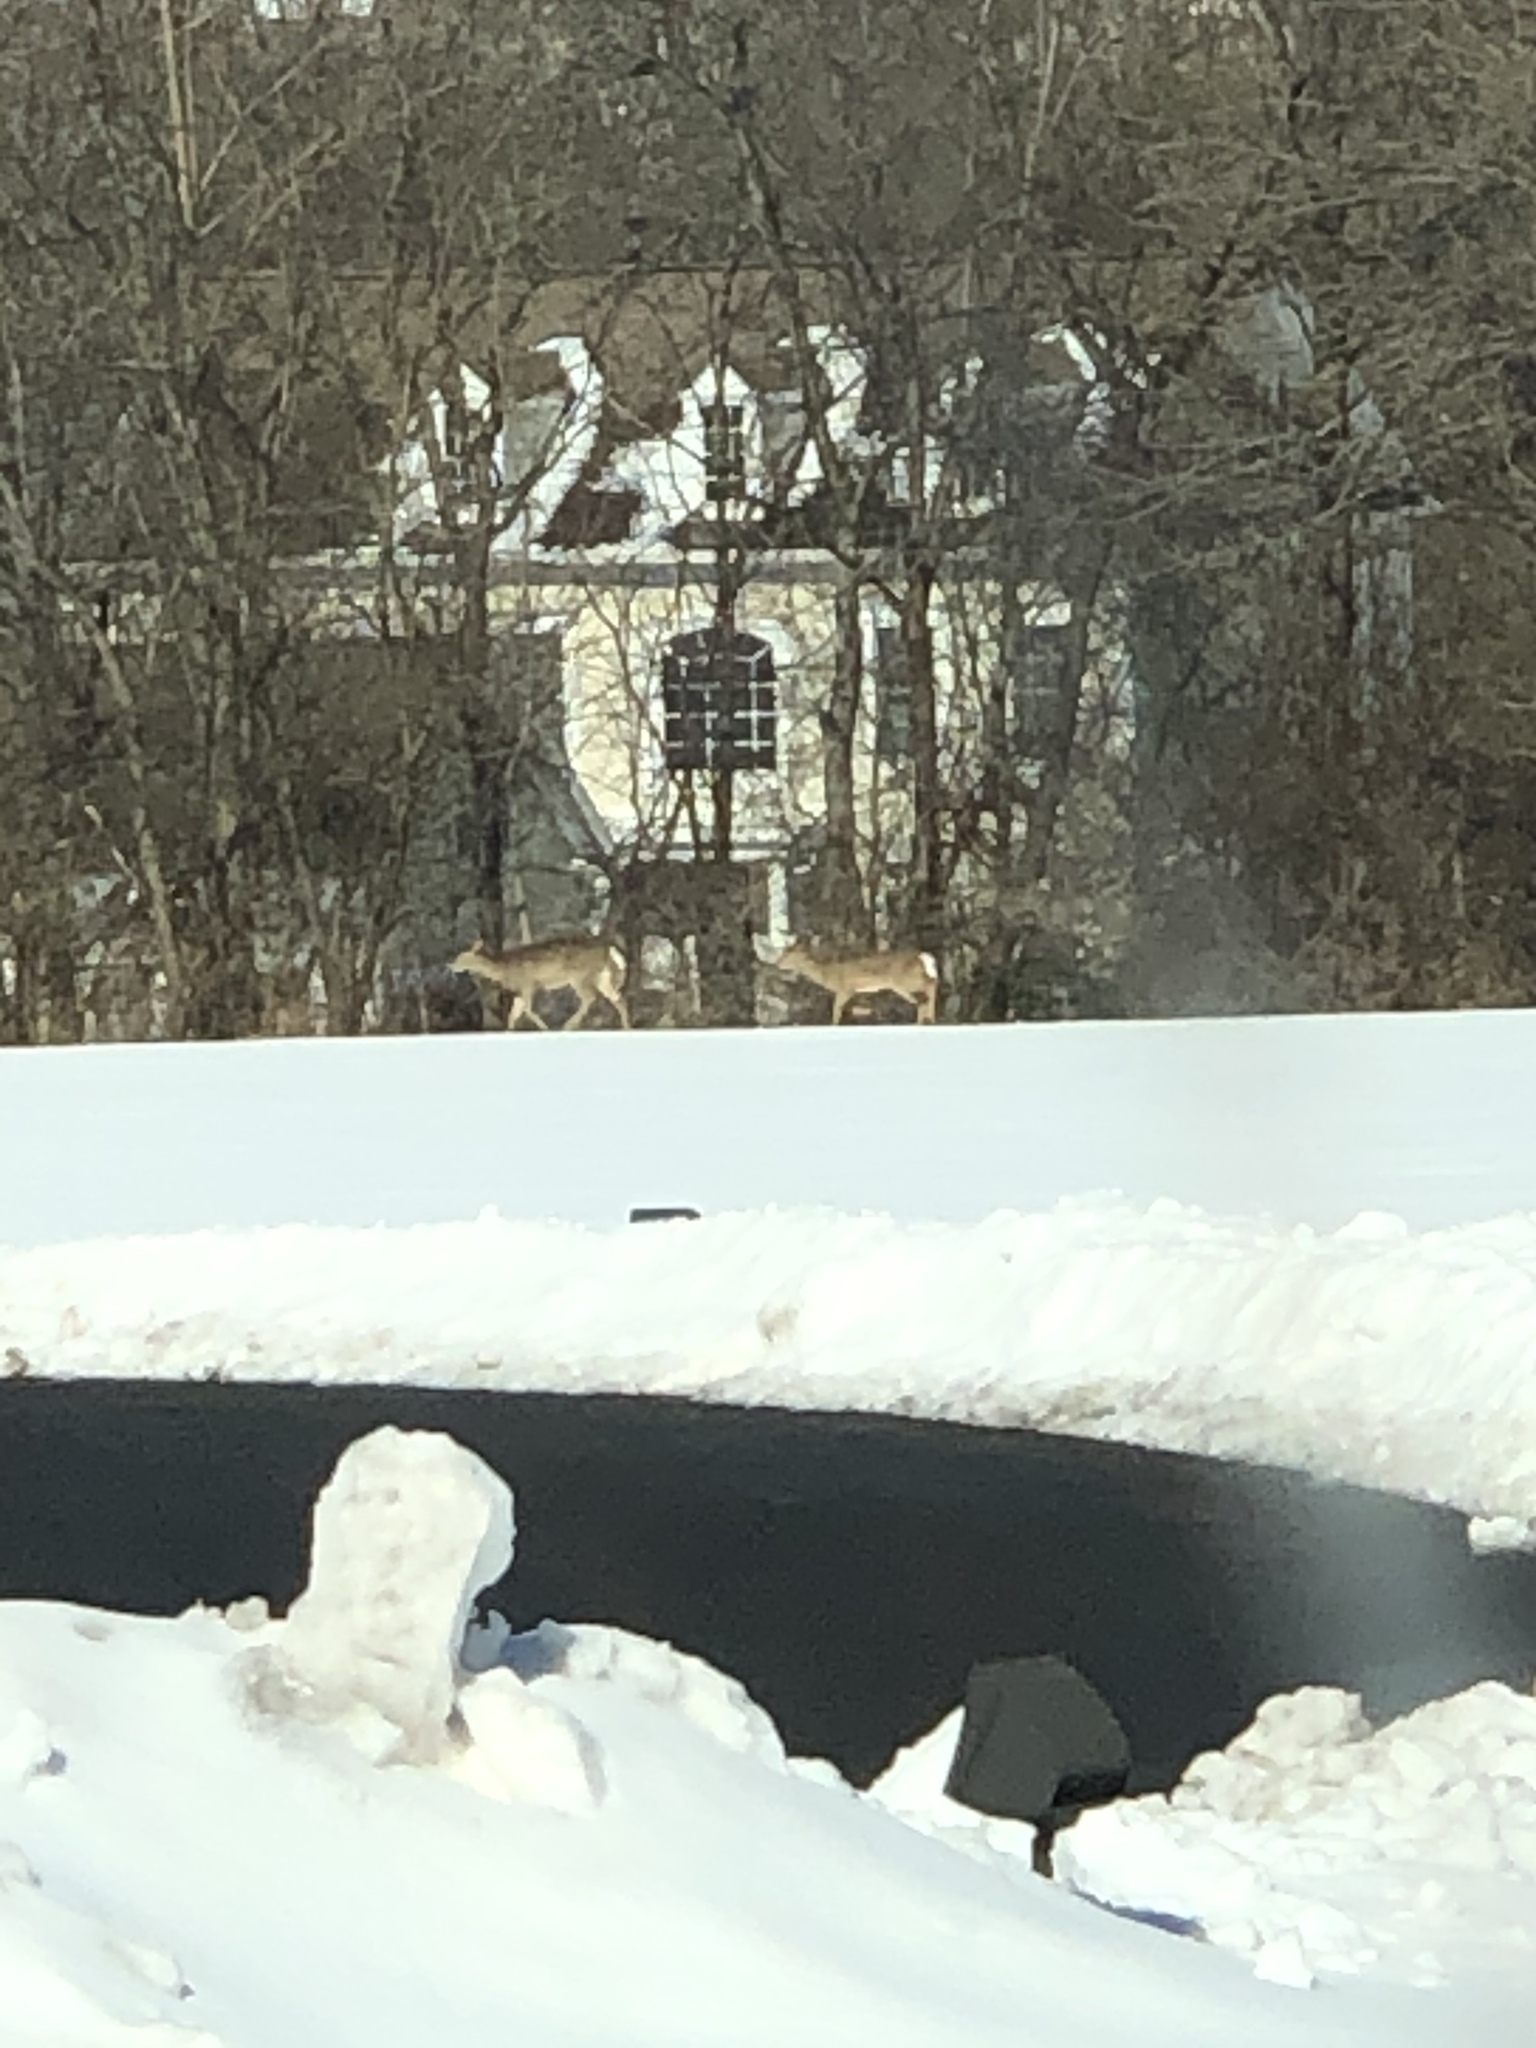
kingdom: Animalia
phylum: Chordata
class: Mammalia
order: Artiodactyla
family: Cervidae
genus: Odocoileus
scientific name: Odocoileus virginianus
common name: White-tailed deer
